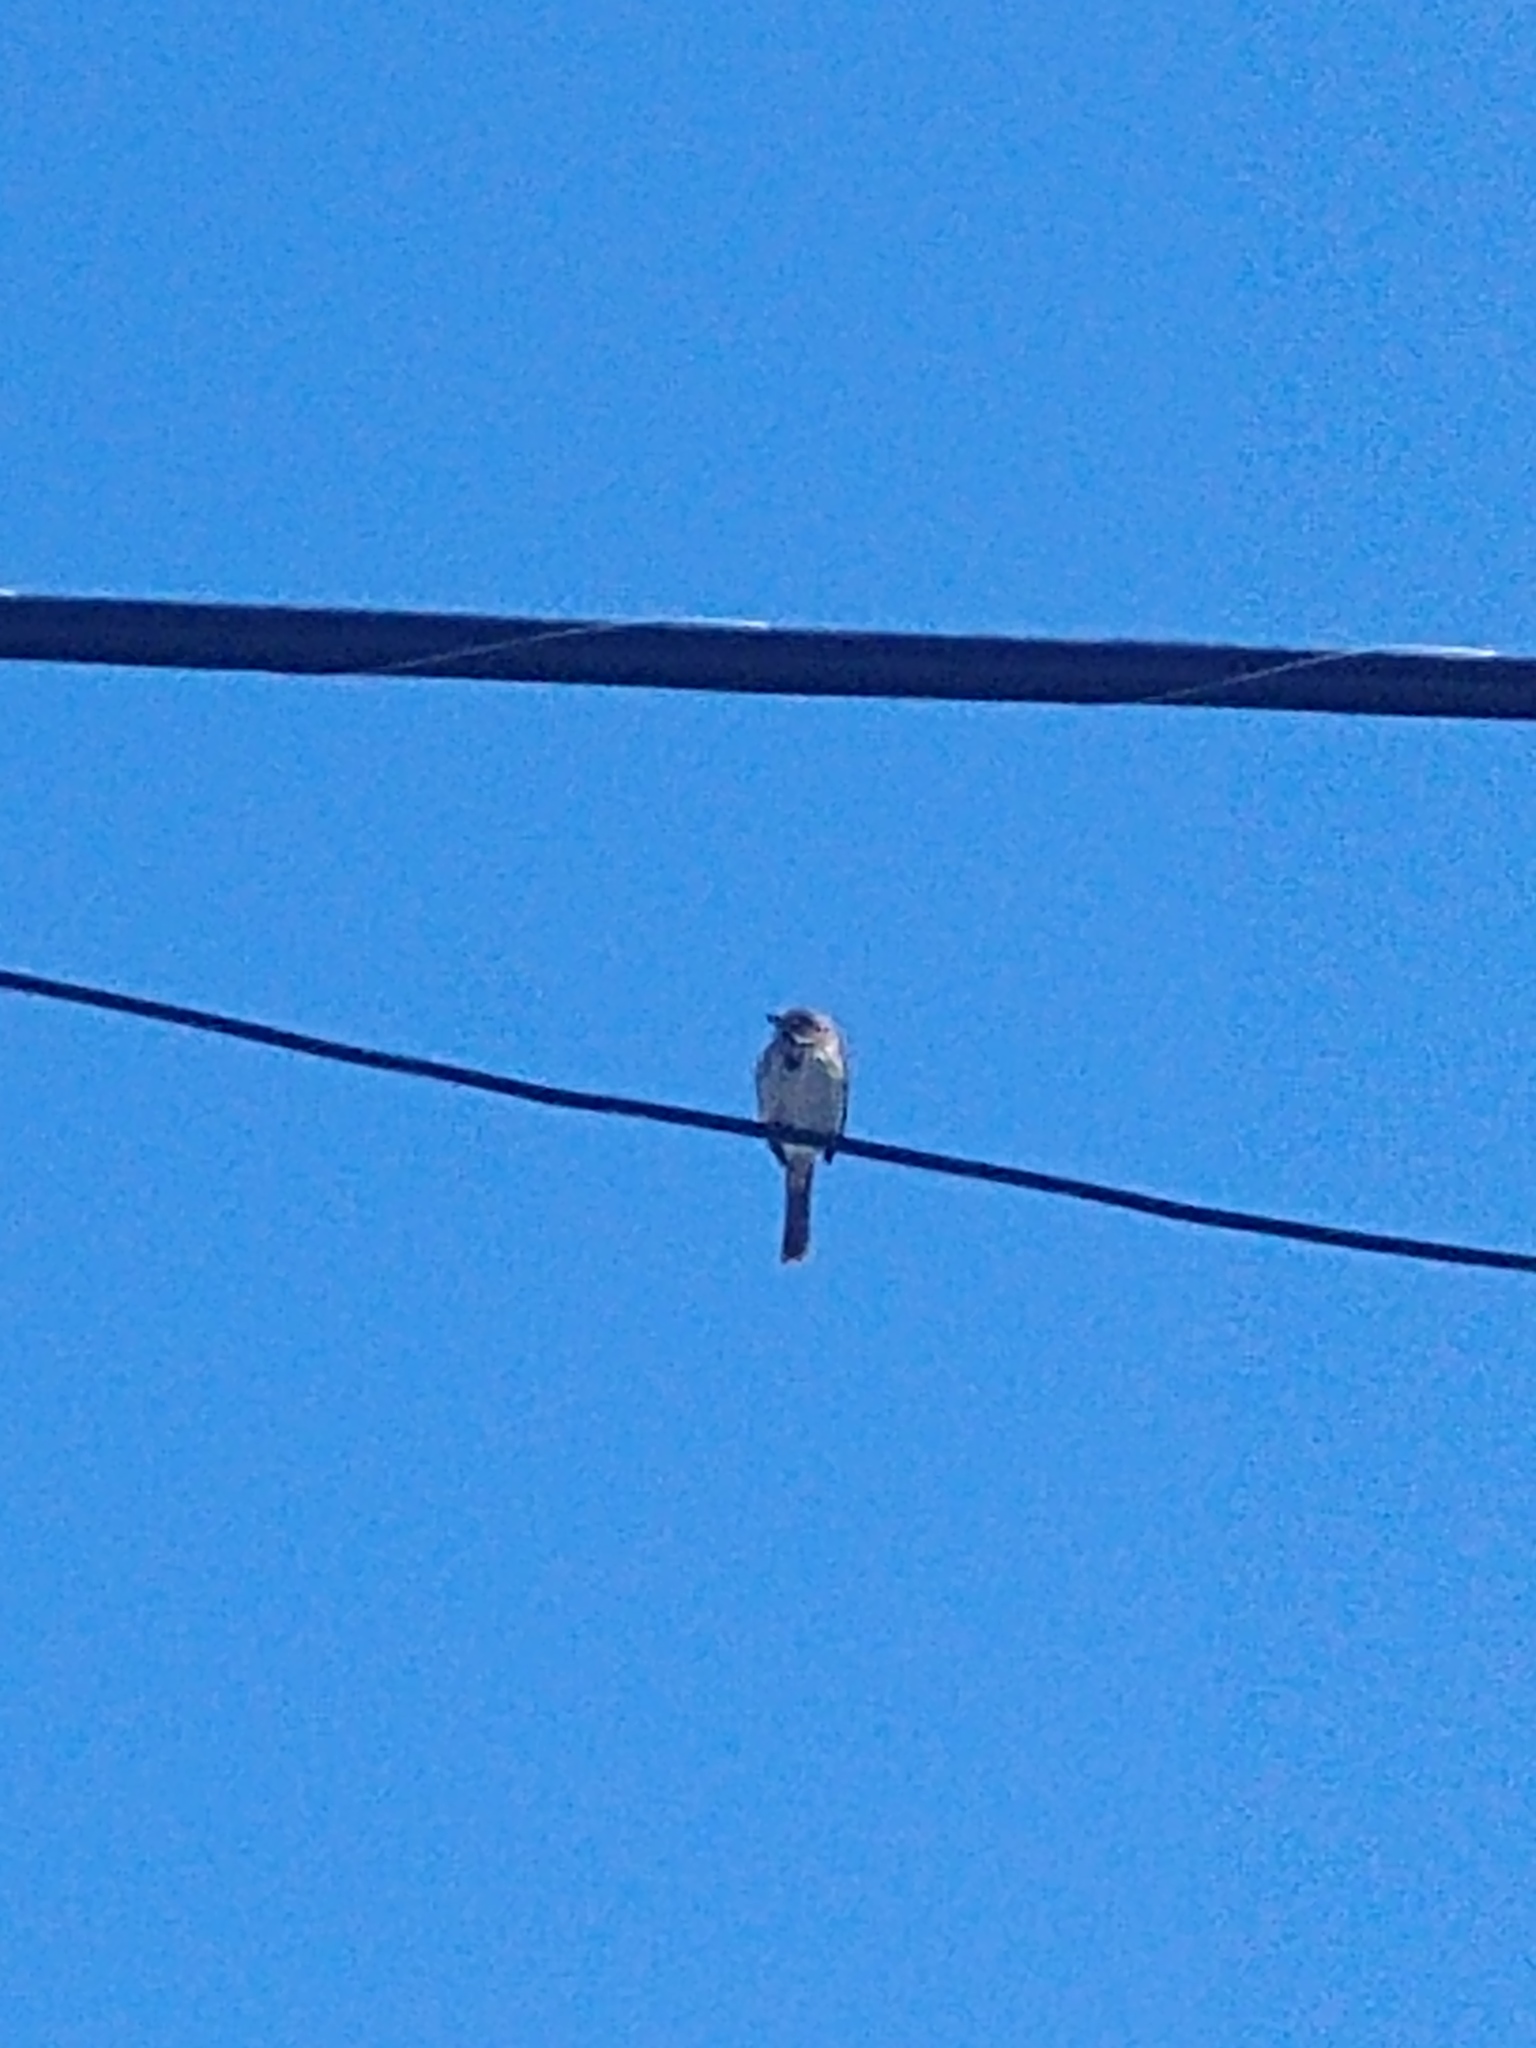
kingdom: Animalia
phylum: Chordata
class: Aves
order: Passeriformes
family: Passerellidae
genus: Melospiza
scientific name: Melospiza melodia
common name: Song sparrow
